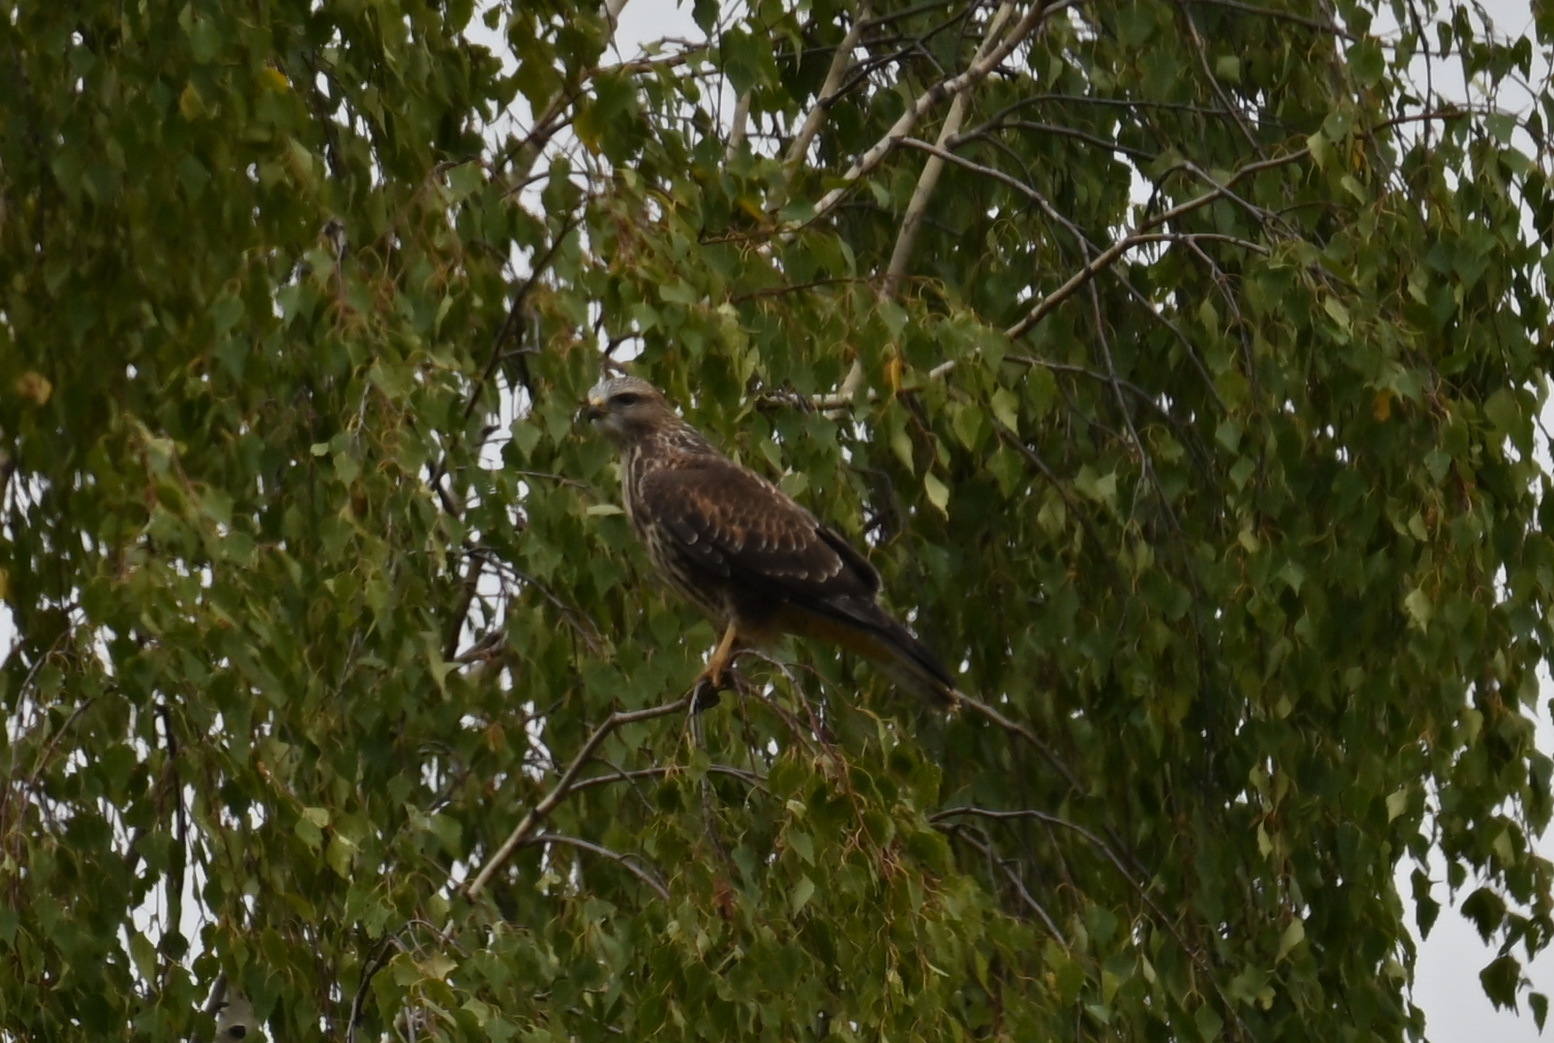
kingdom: Animalia
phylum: Chordata
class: Aves
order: Accipitriformes
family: Accipitridae
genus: Buteo
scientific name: Buteo buteo
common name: Common buzzard
